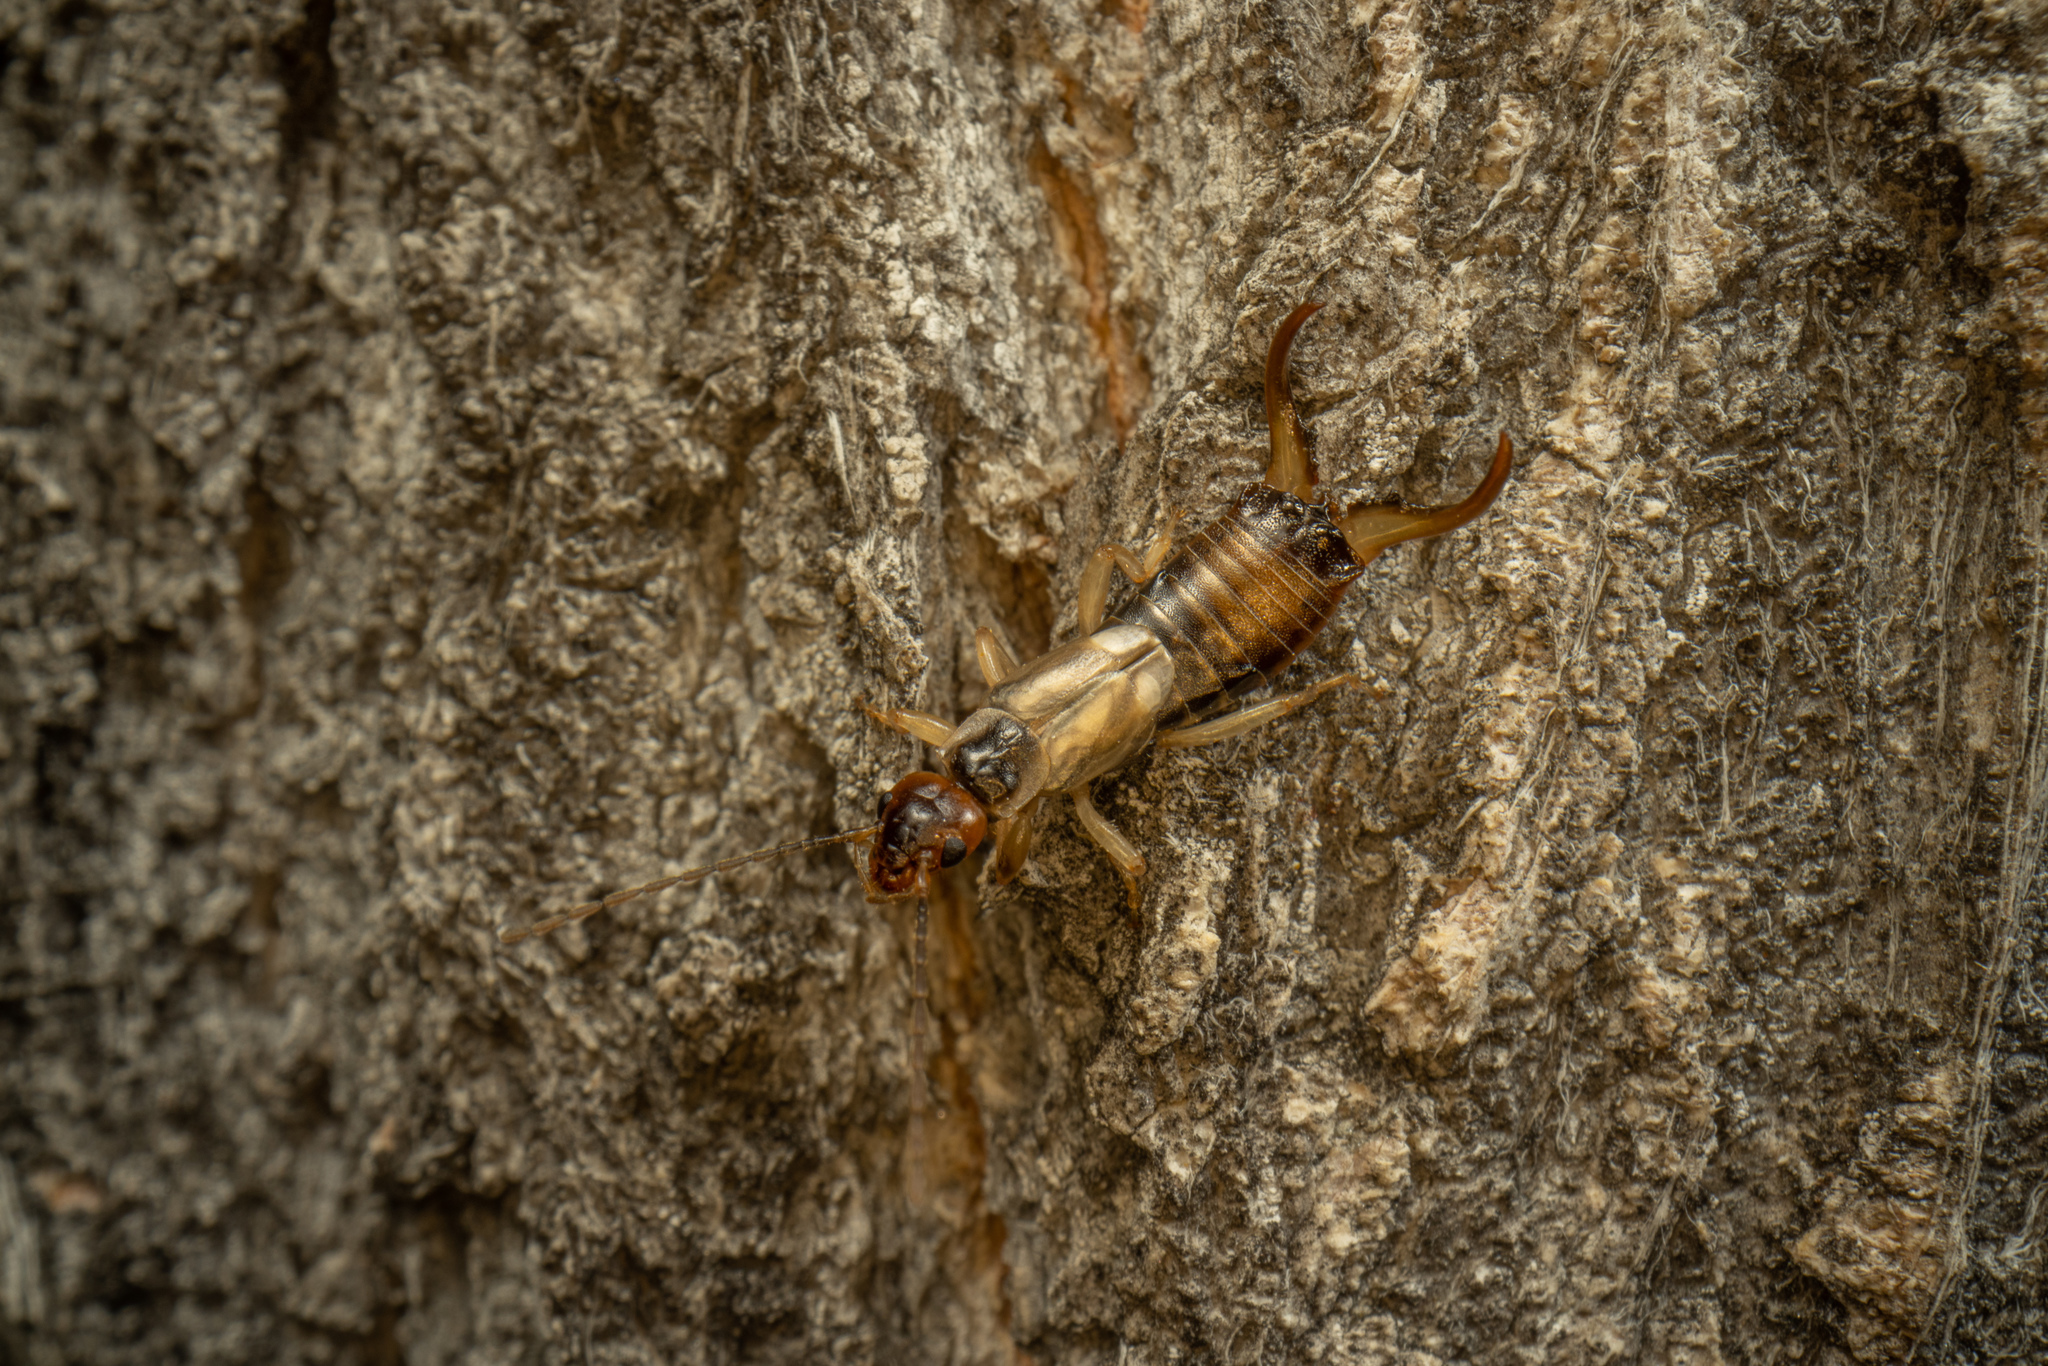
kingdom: Animalia
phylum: Arthropoda
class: Insecta
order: Dermaptera
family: Forficulidae
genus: Forficula
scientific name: Forficula
